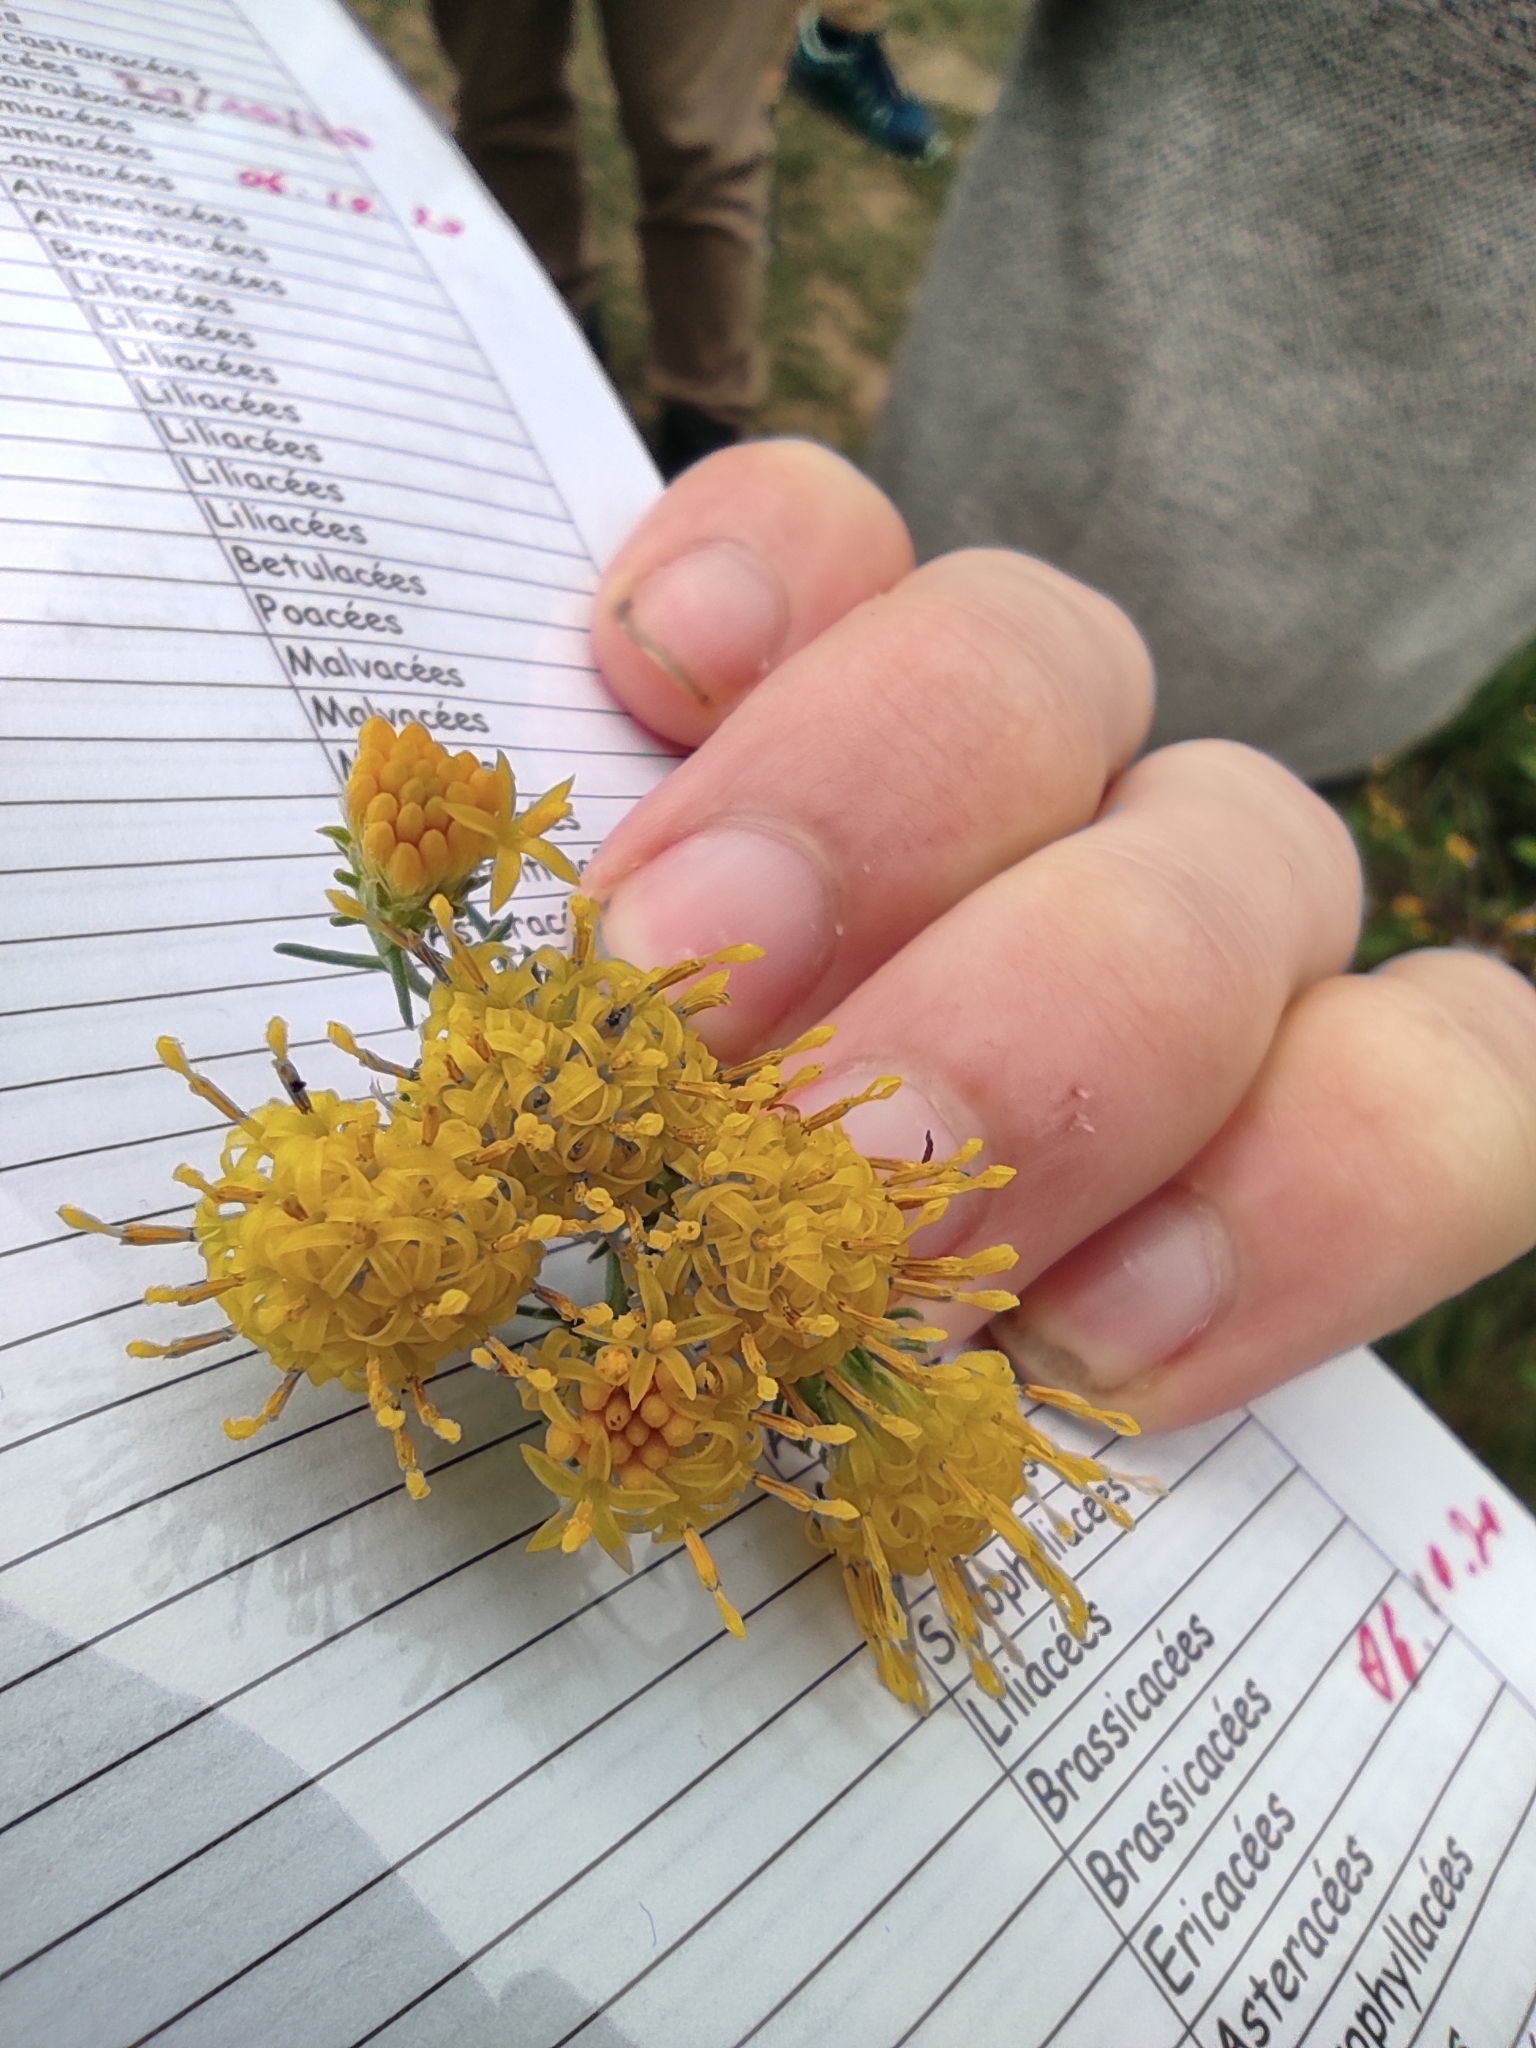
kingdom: Plantae
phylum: Tracheophyta
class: Magnoliopsida
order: Asterales
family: Asteraceae
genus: Galatella
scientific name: Galatella linosyris
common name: Goldilocks aster
